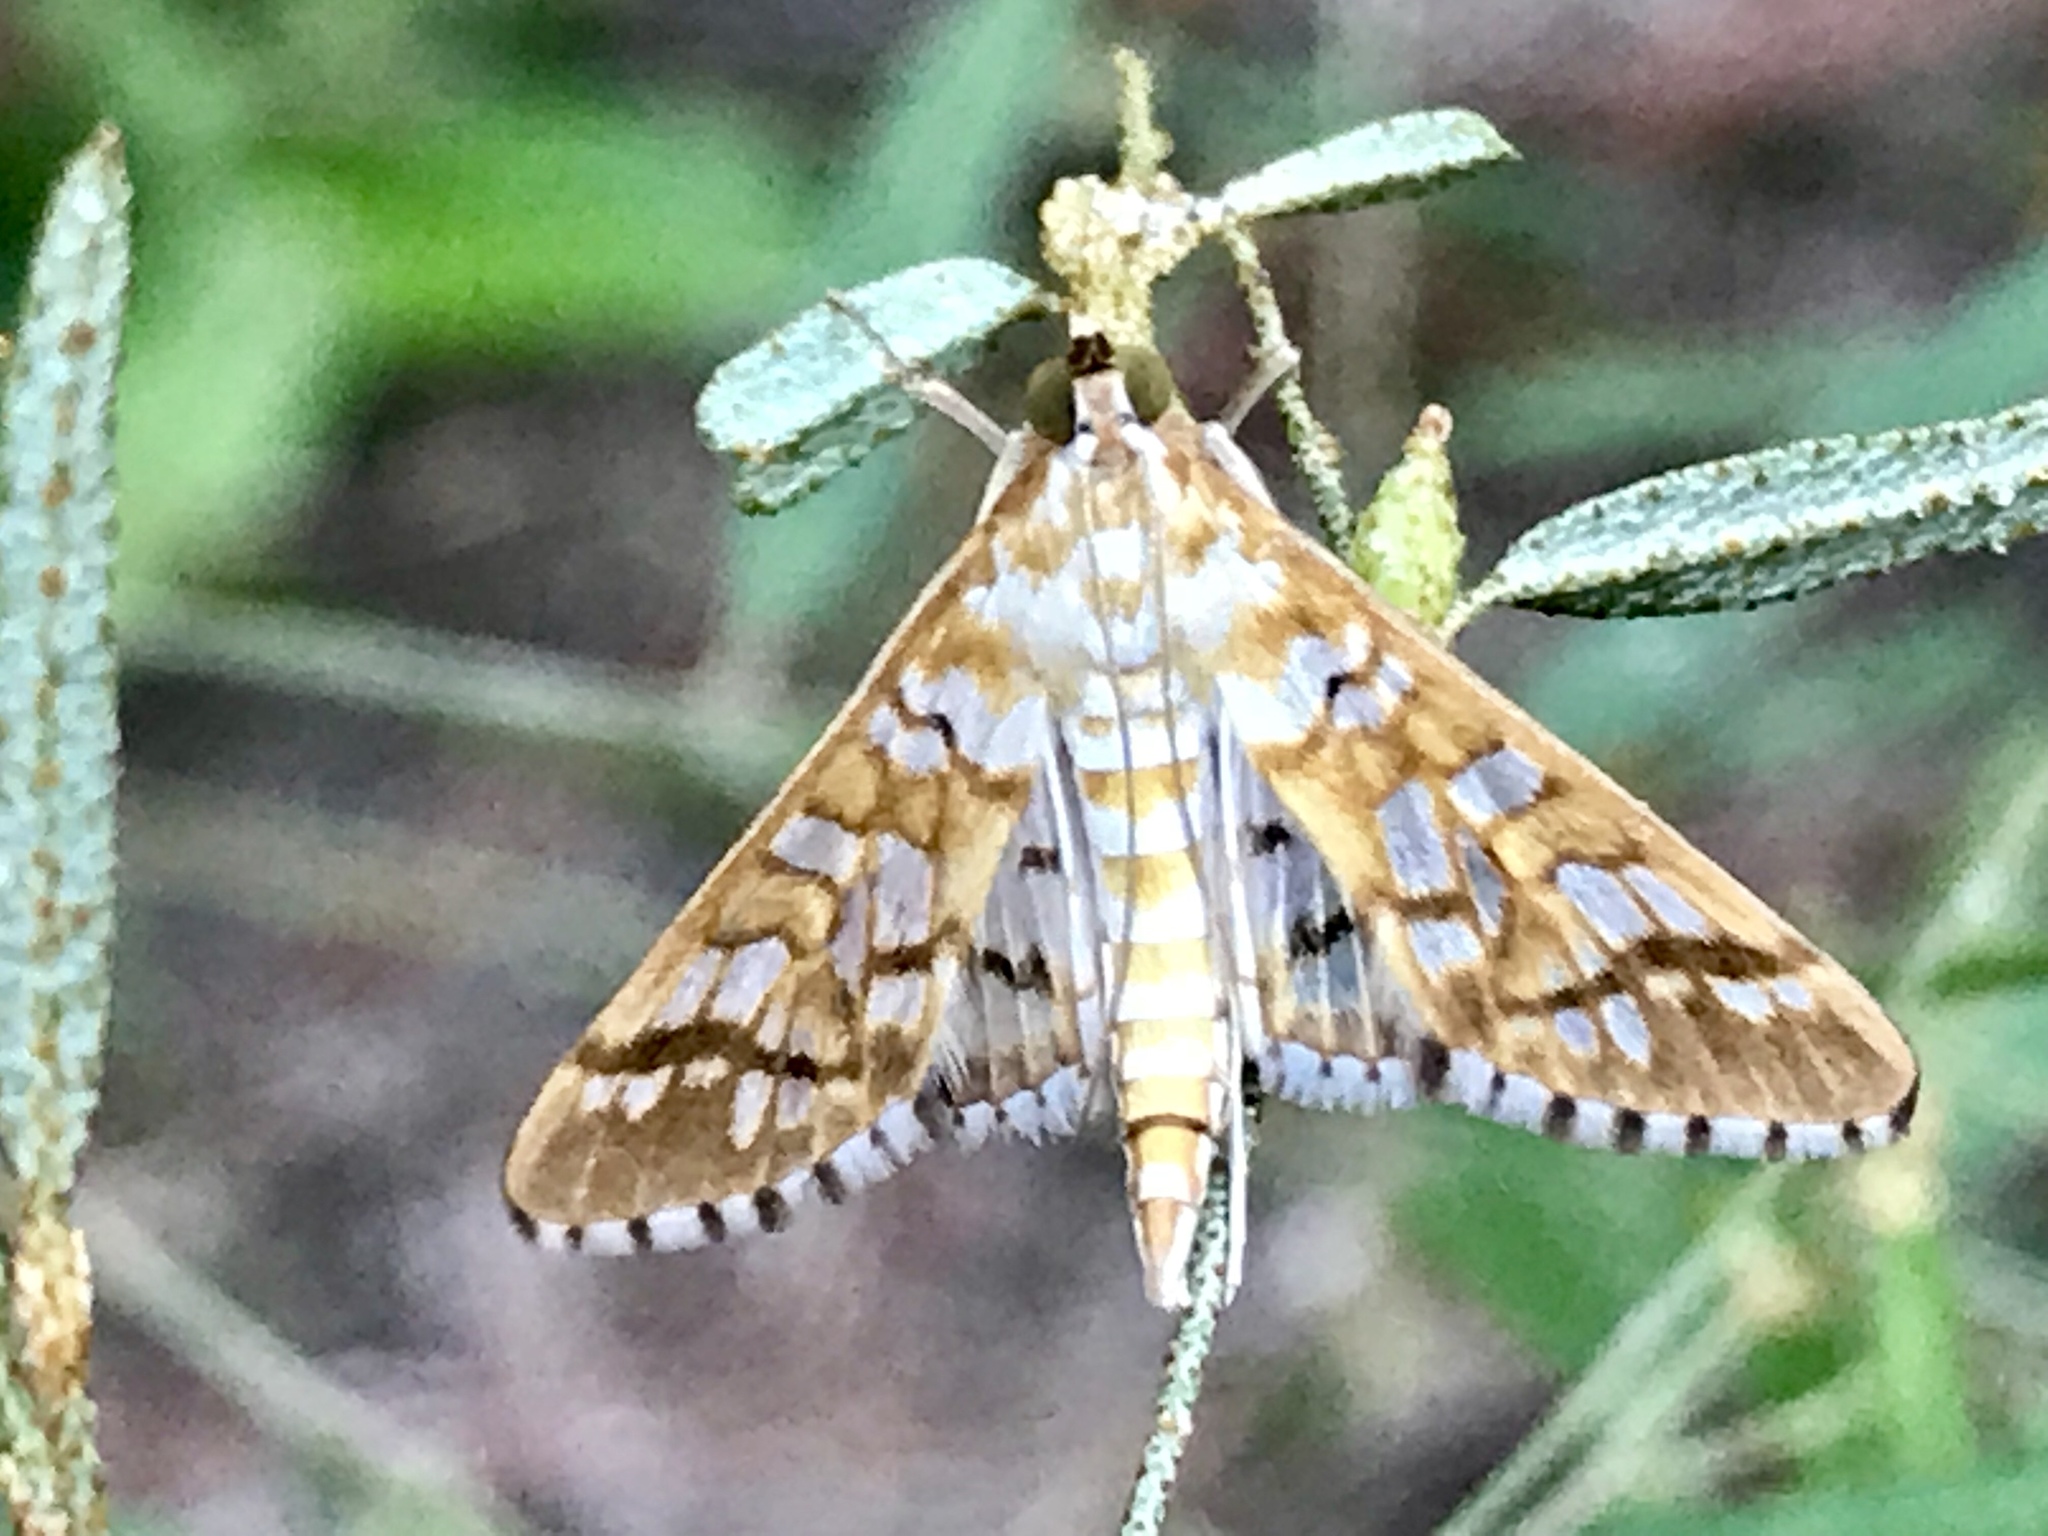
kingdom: Animalia
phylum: Arthropoda
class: Insecta
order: Lepidoptera
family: Crambidae
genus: Epipagis
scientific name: Epipagis fenestralis
